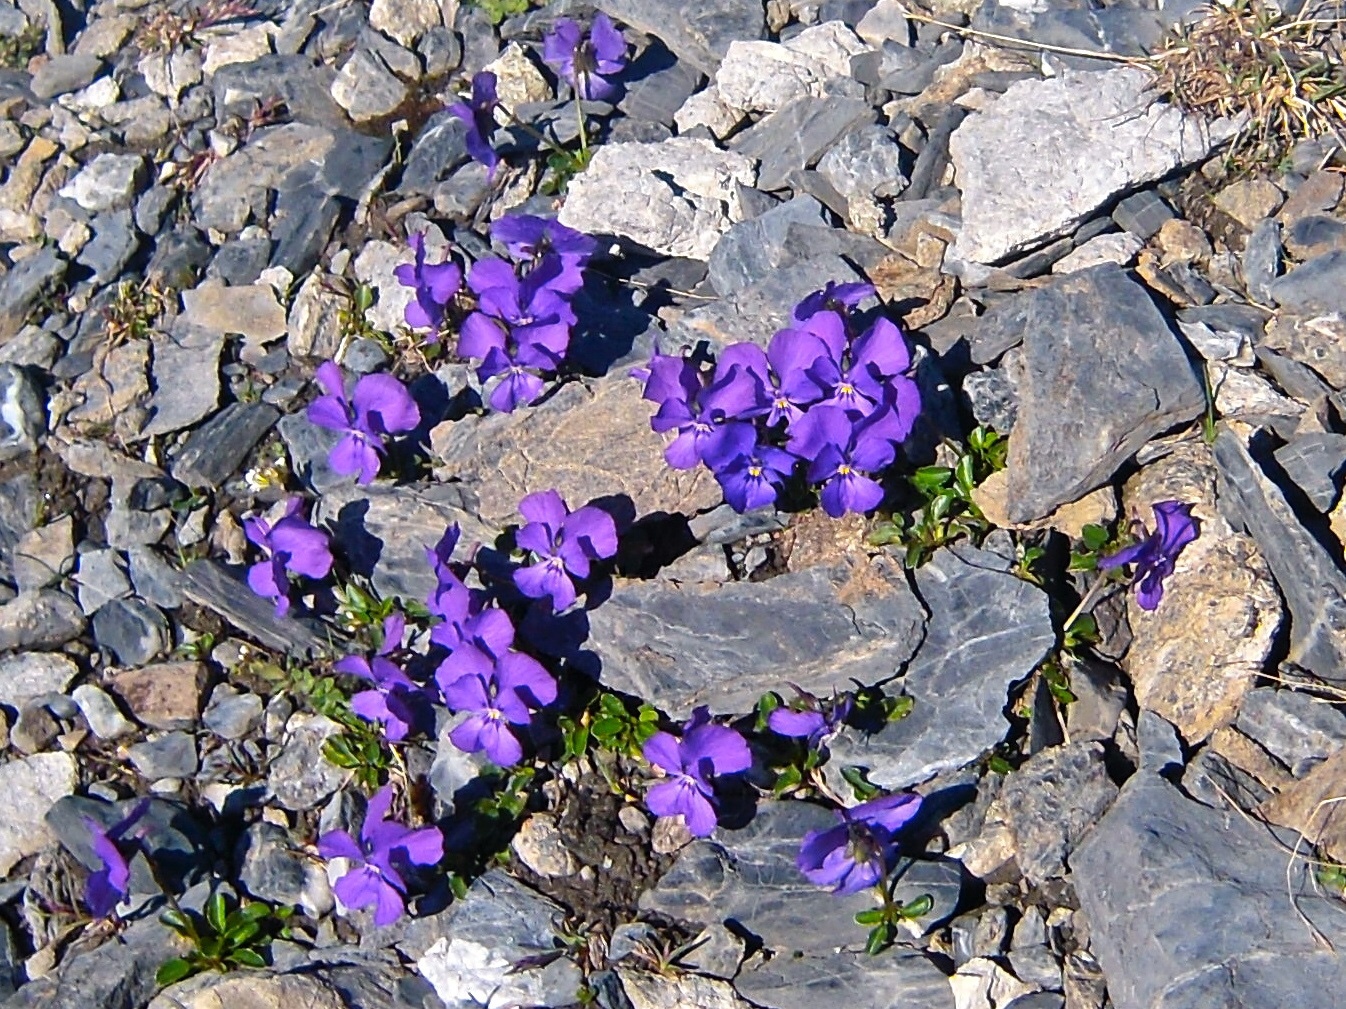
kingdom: Plantae
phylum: Tracheophyta
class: Magnoliopsida
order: Malpighiales
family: Violaceae
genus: Viola
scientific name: Viola calcarata
